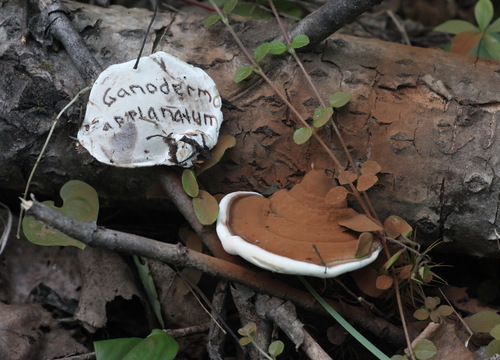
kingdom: Fungi
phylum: Basidiomycota
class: Agaricomycetes
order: Polyporales
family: Polyporaceae
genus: Ganoderma
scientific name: Ganoderma applanatum
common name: Artist's bracket
